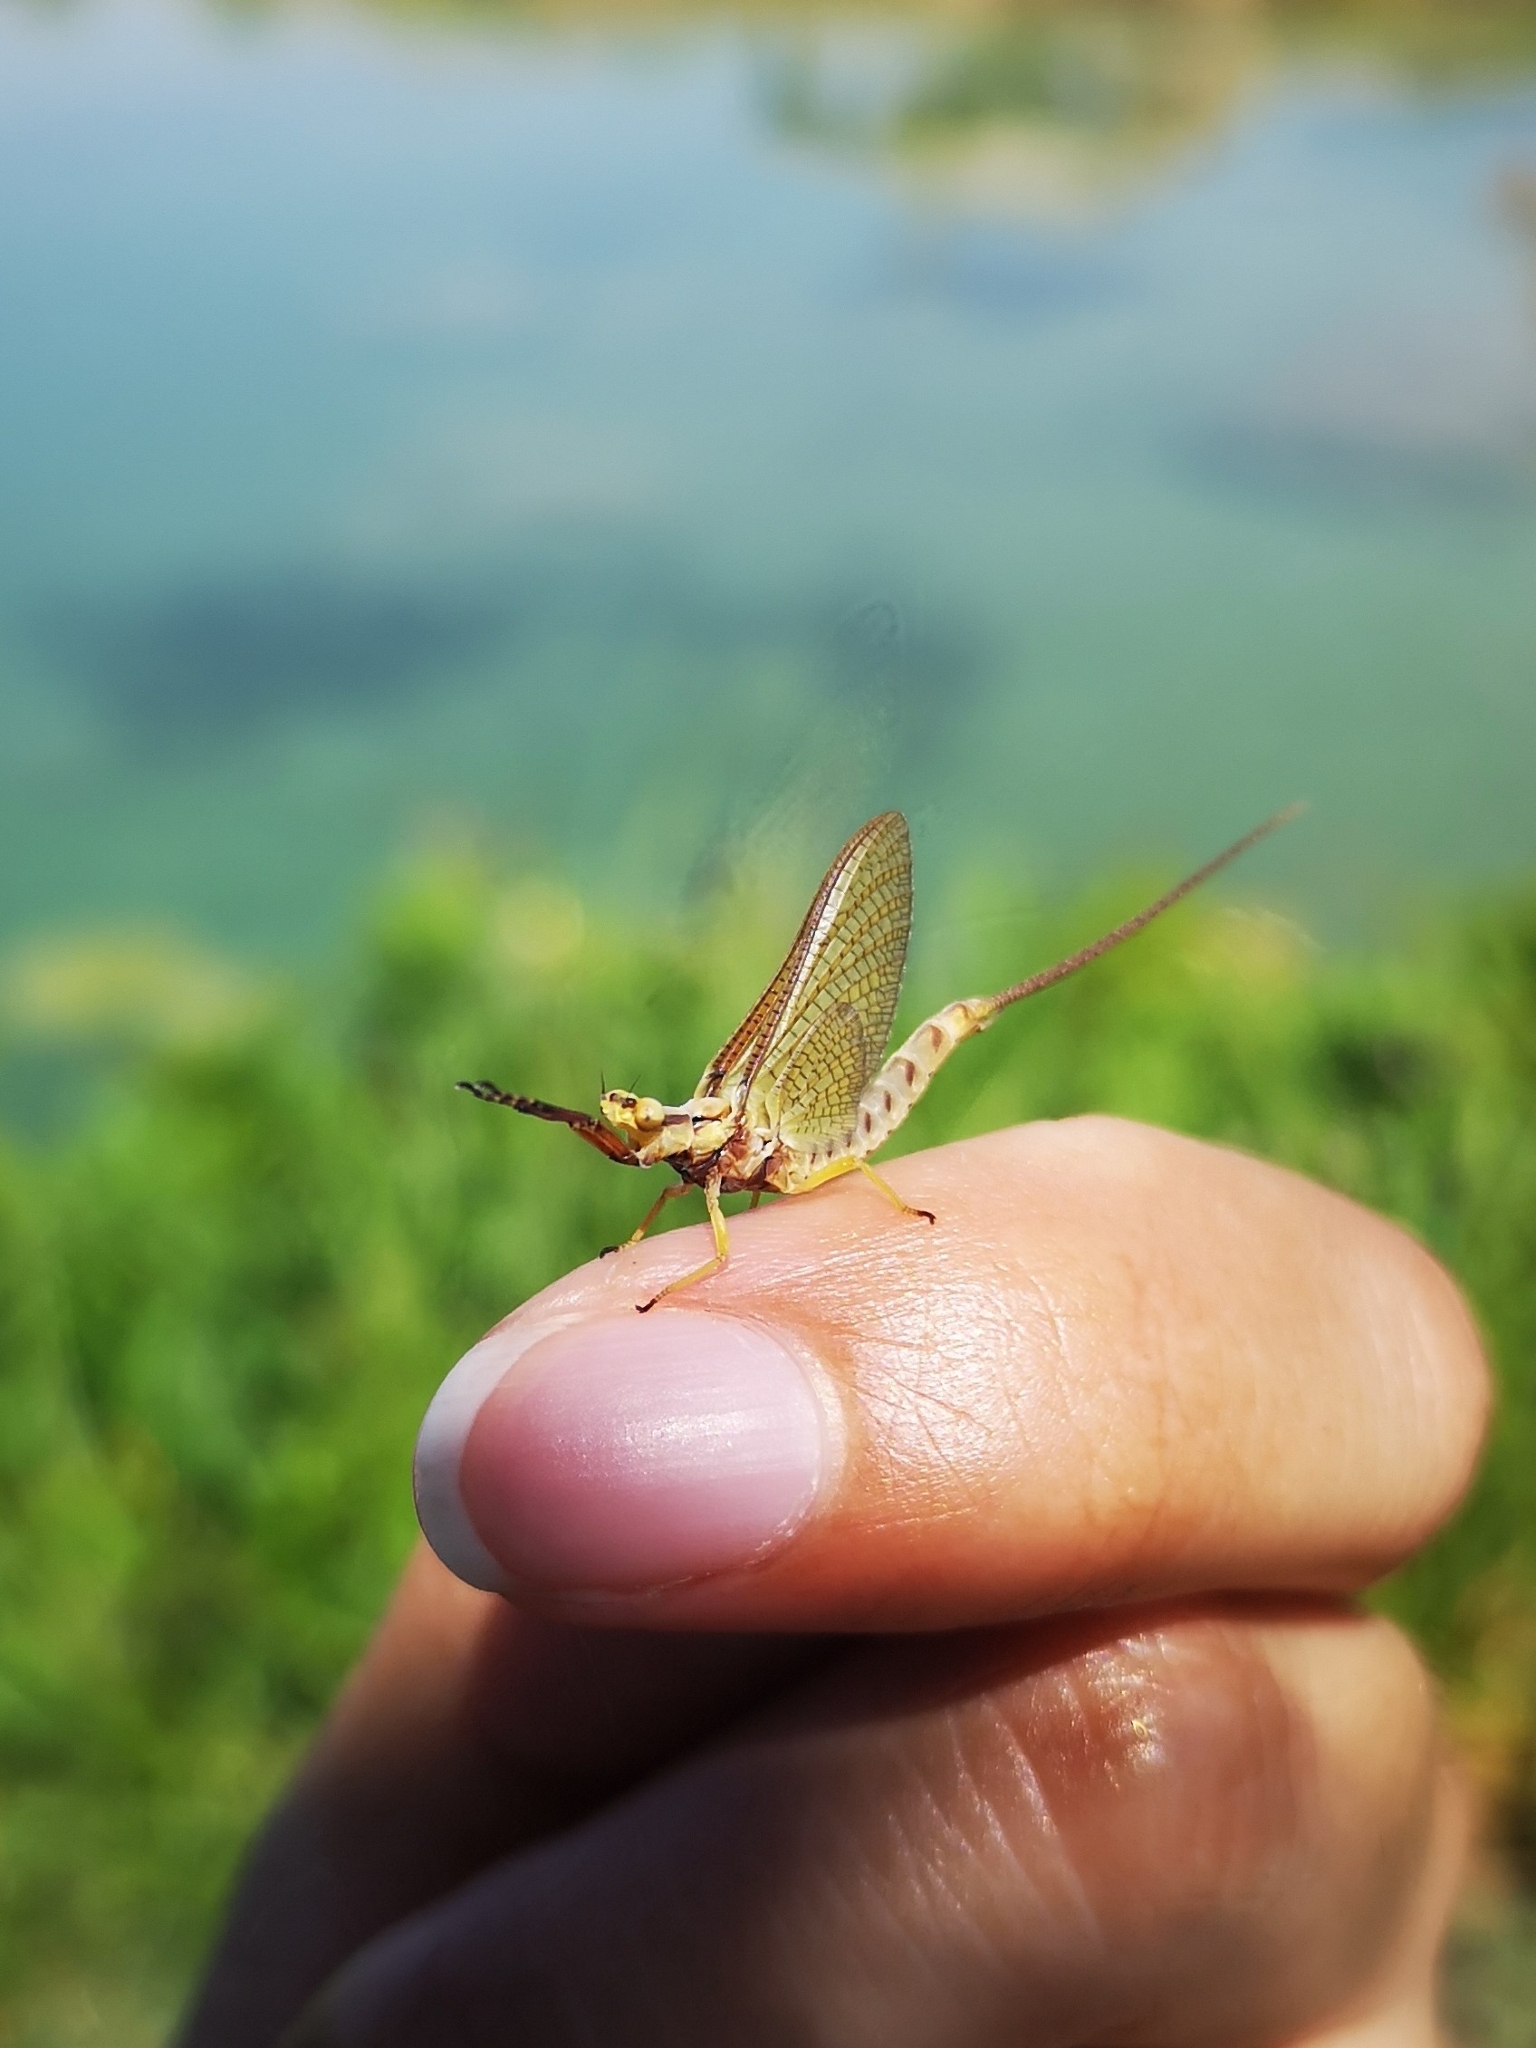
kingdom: Animalia
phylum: Arthropoda
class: Insecta
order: Ephemeroptera
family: Ephemeridae
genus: Hexagenia
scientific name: Hexagenia limbata
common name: Giant mayfly
